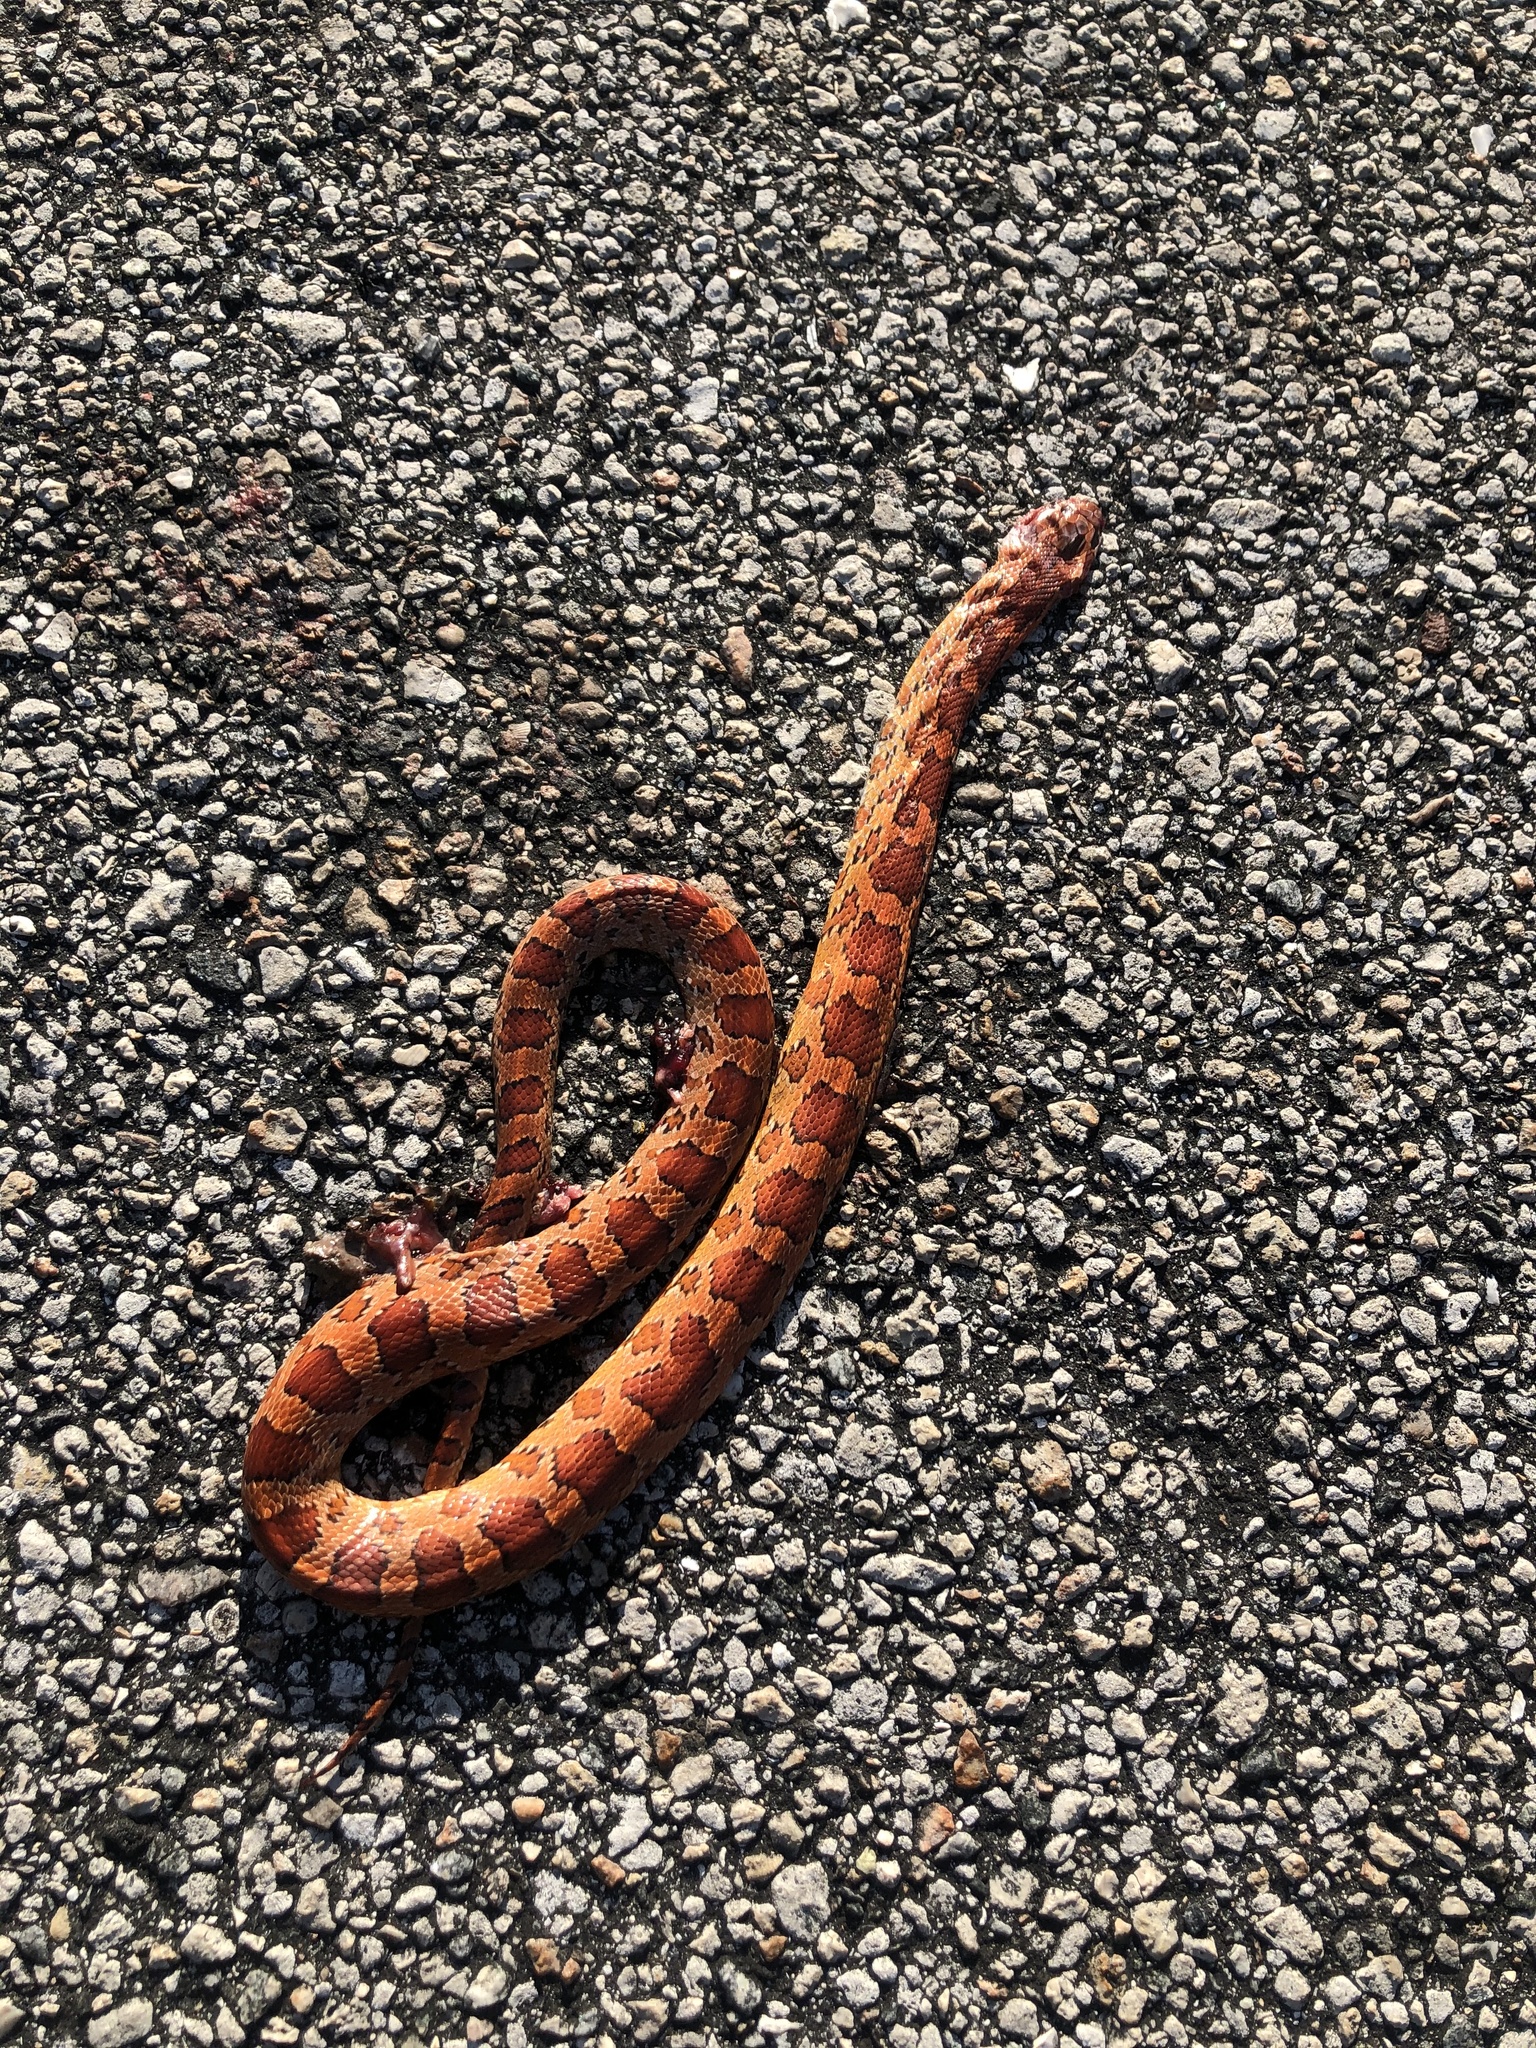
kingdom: Animalia
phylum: Chordata
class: Squamata
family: Colubridae
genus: Pantherophis
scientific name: Pantherophis guttatus
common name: Red cornsnake
